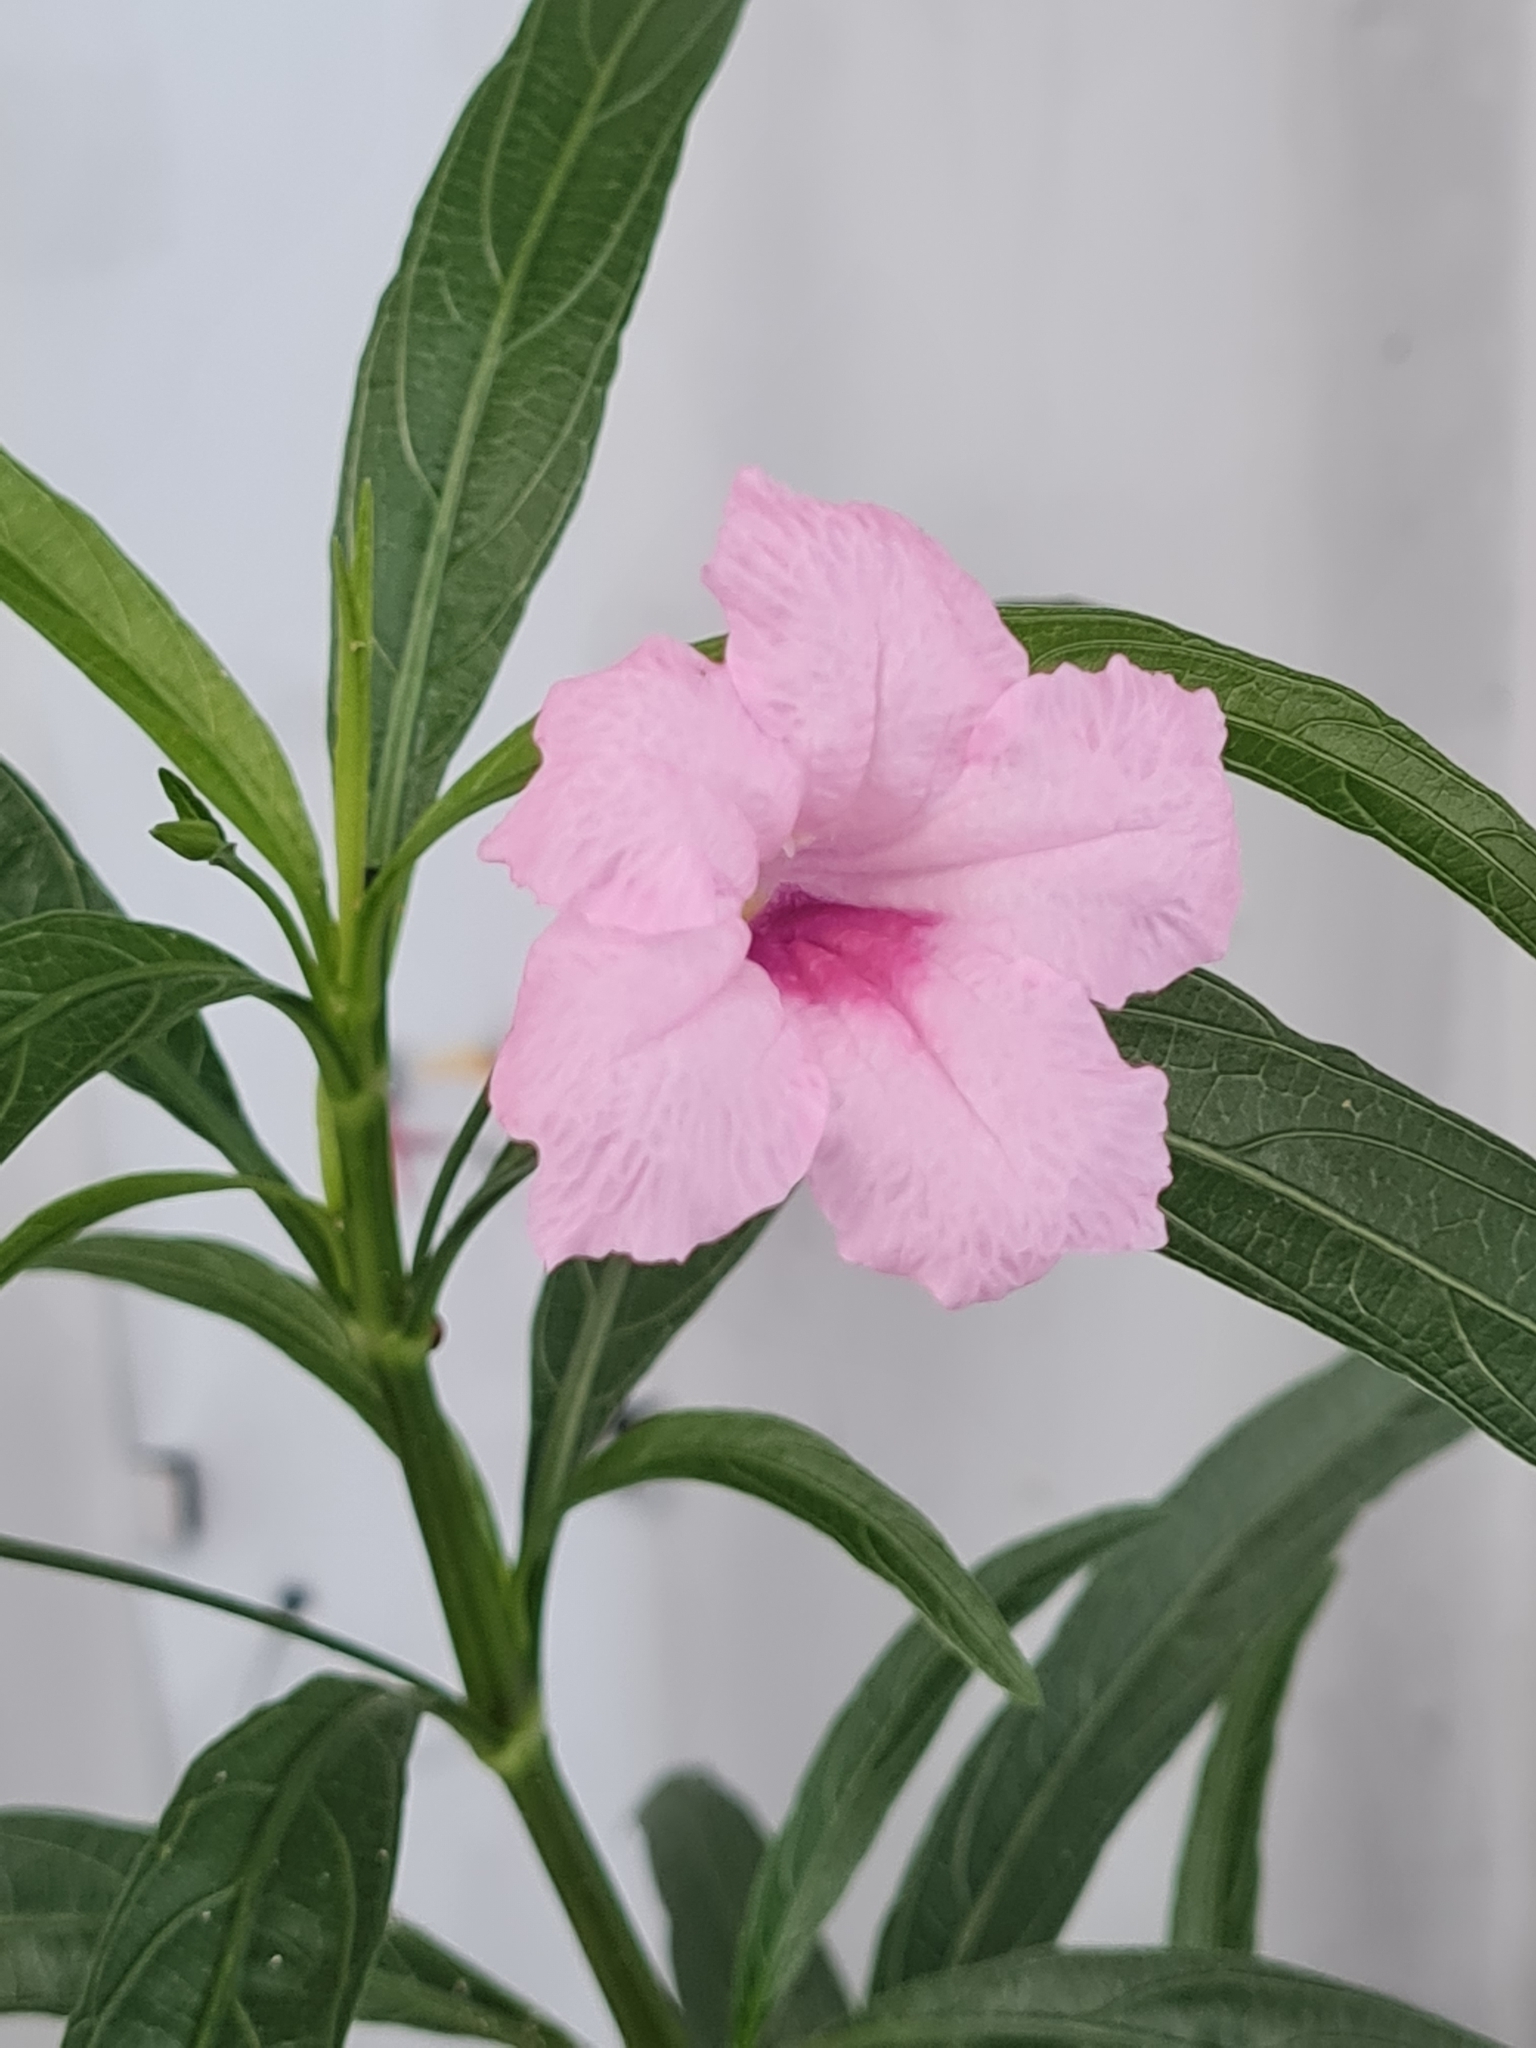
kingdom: Plantae
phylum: Tracheophyta
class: Magnoliopsida
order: Lamiales
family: Acanthaceae
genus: Ruellia
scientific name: Ruellia simplex
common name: Softseed wild petunia
